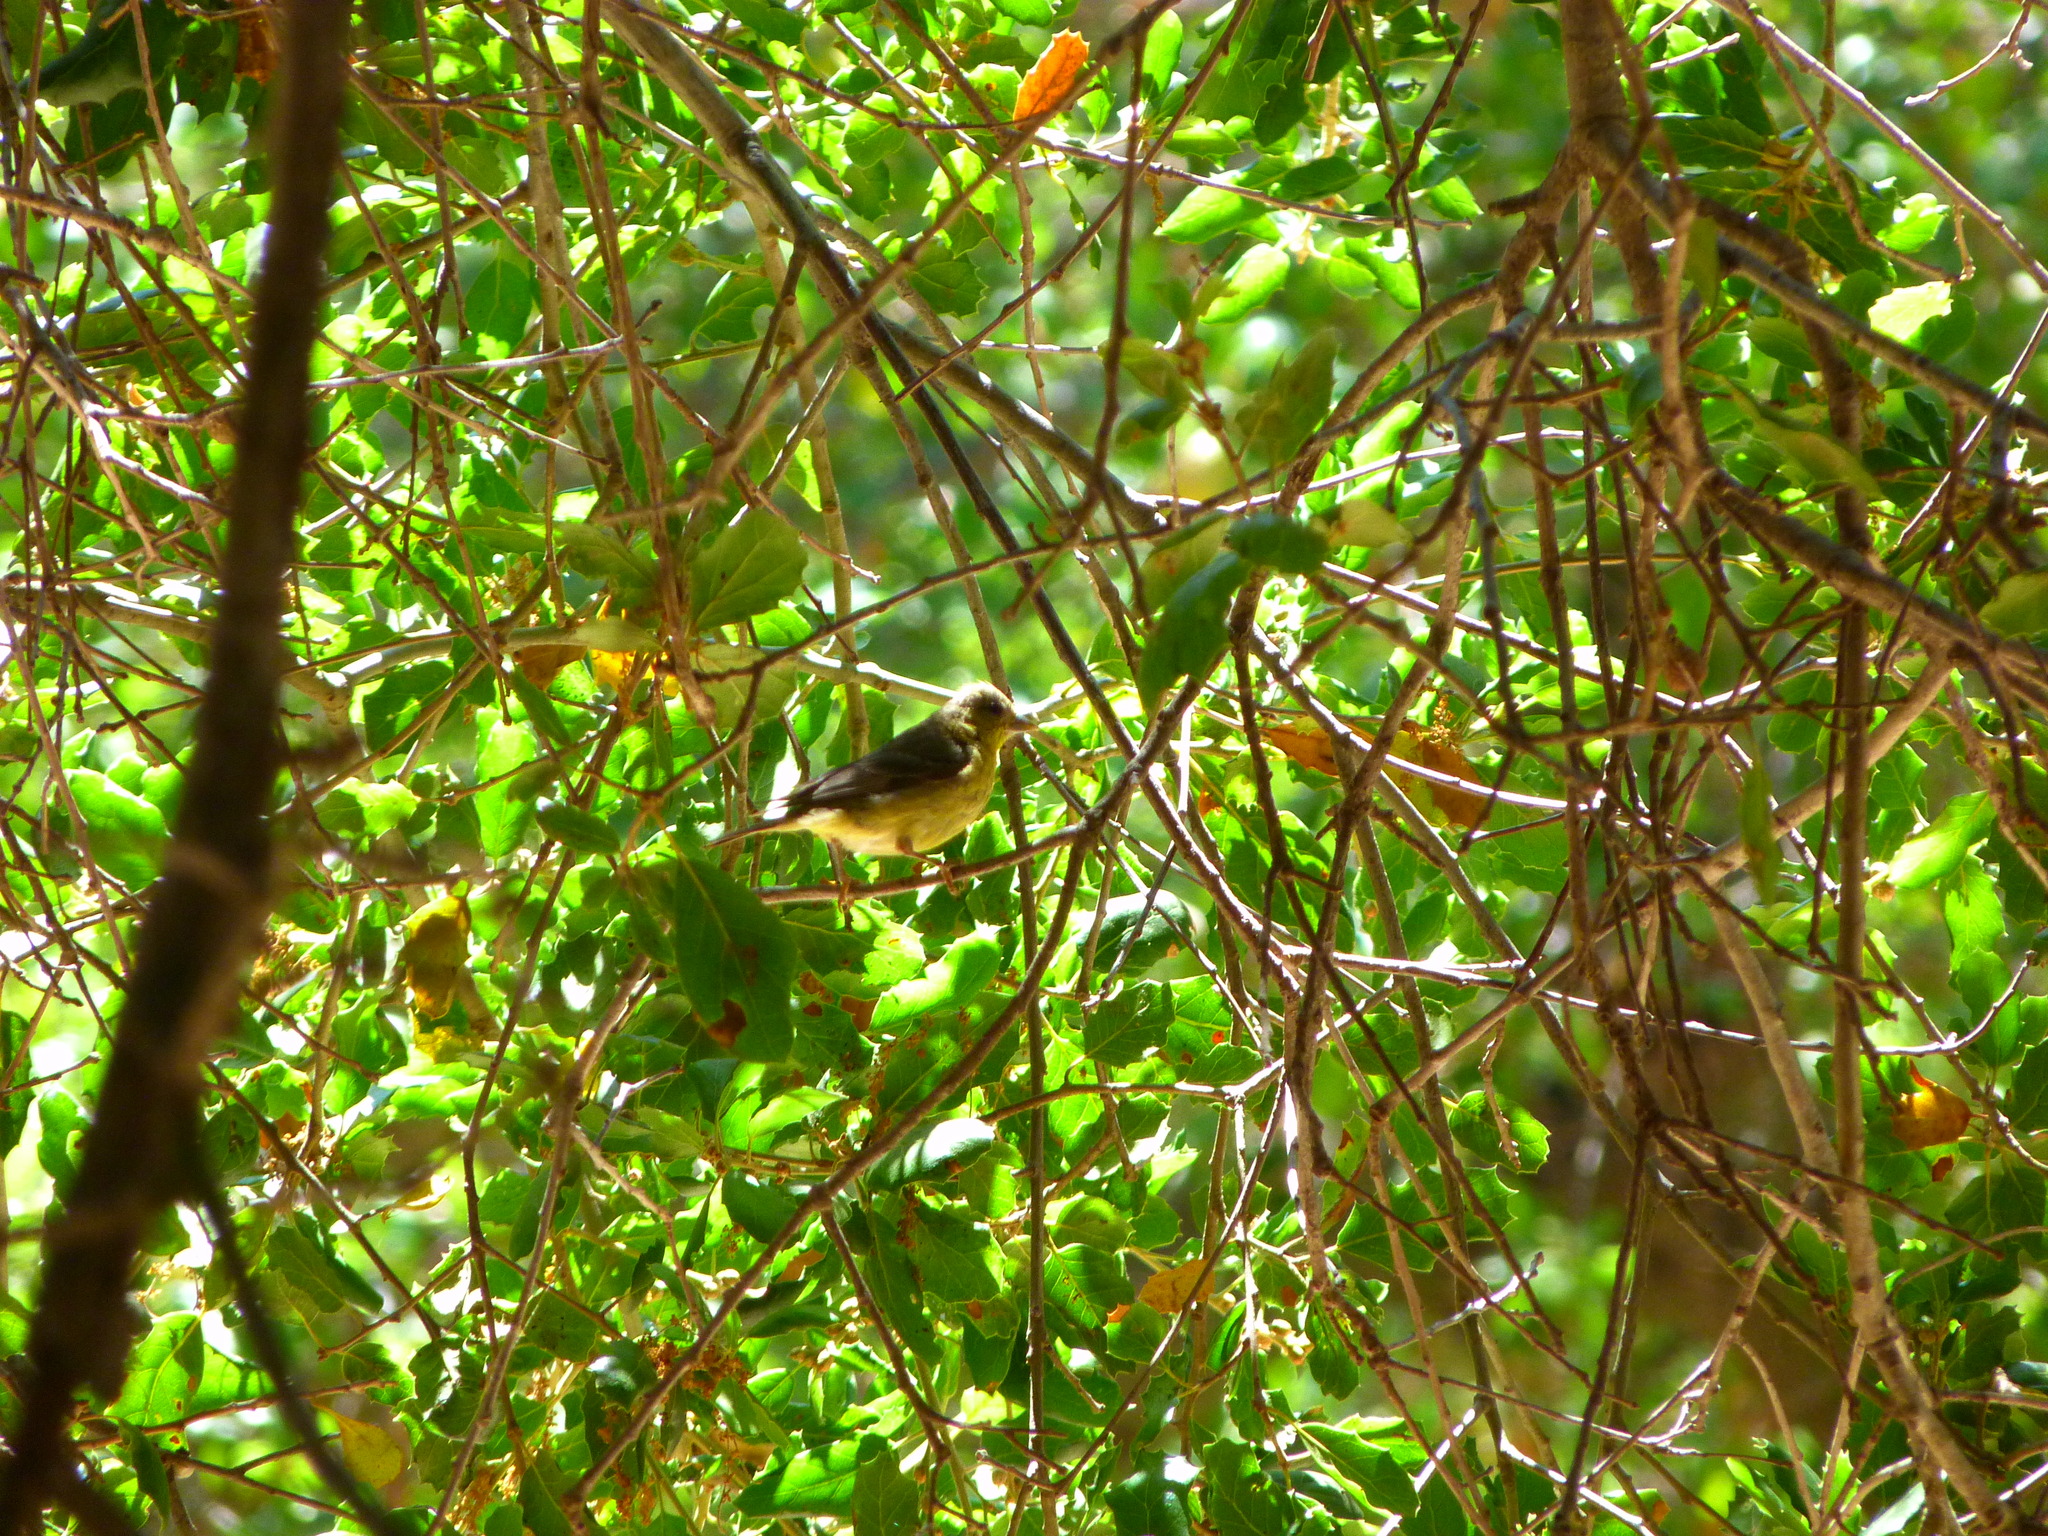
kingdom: Animalia
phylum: Chordata
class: Aves
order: Passeriformes
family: Fringillidae
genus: Spinus
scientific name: Spinus psaltria
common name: Lesser goldfinch
